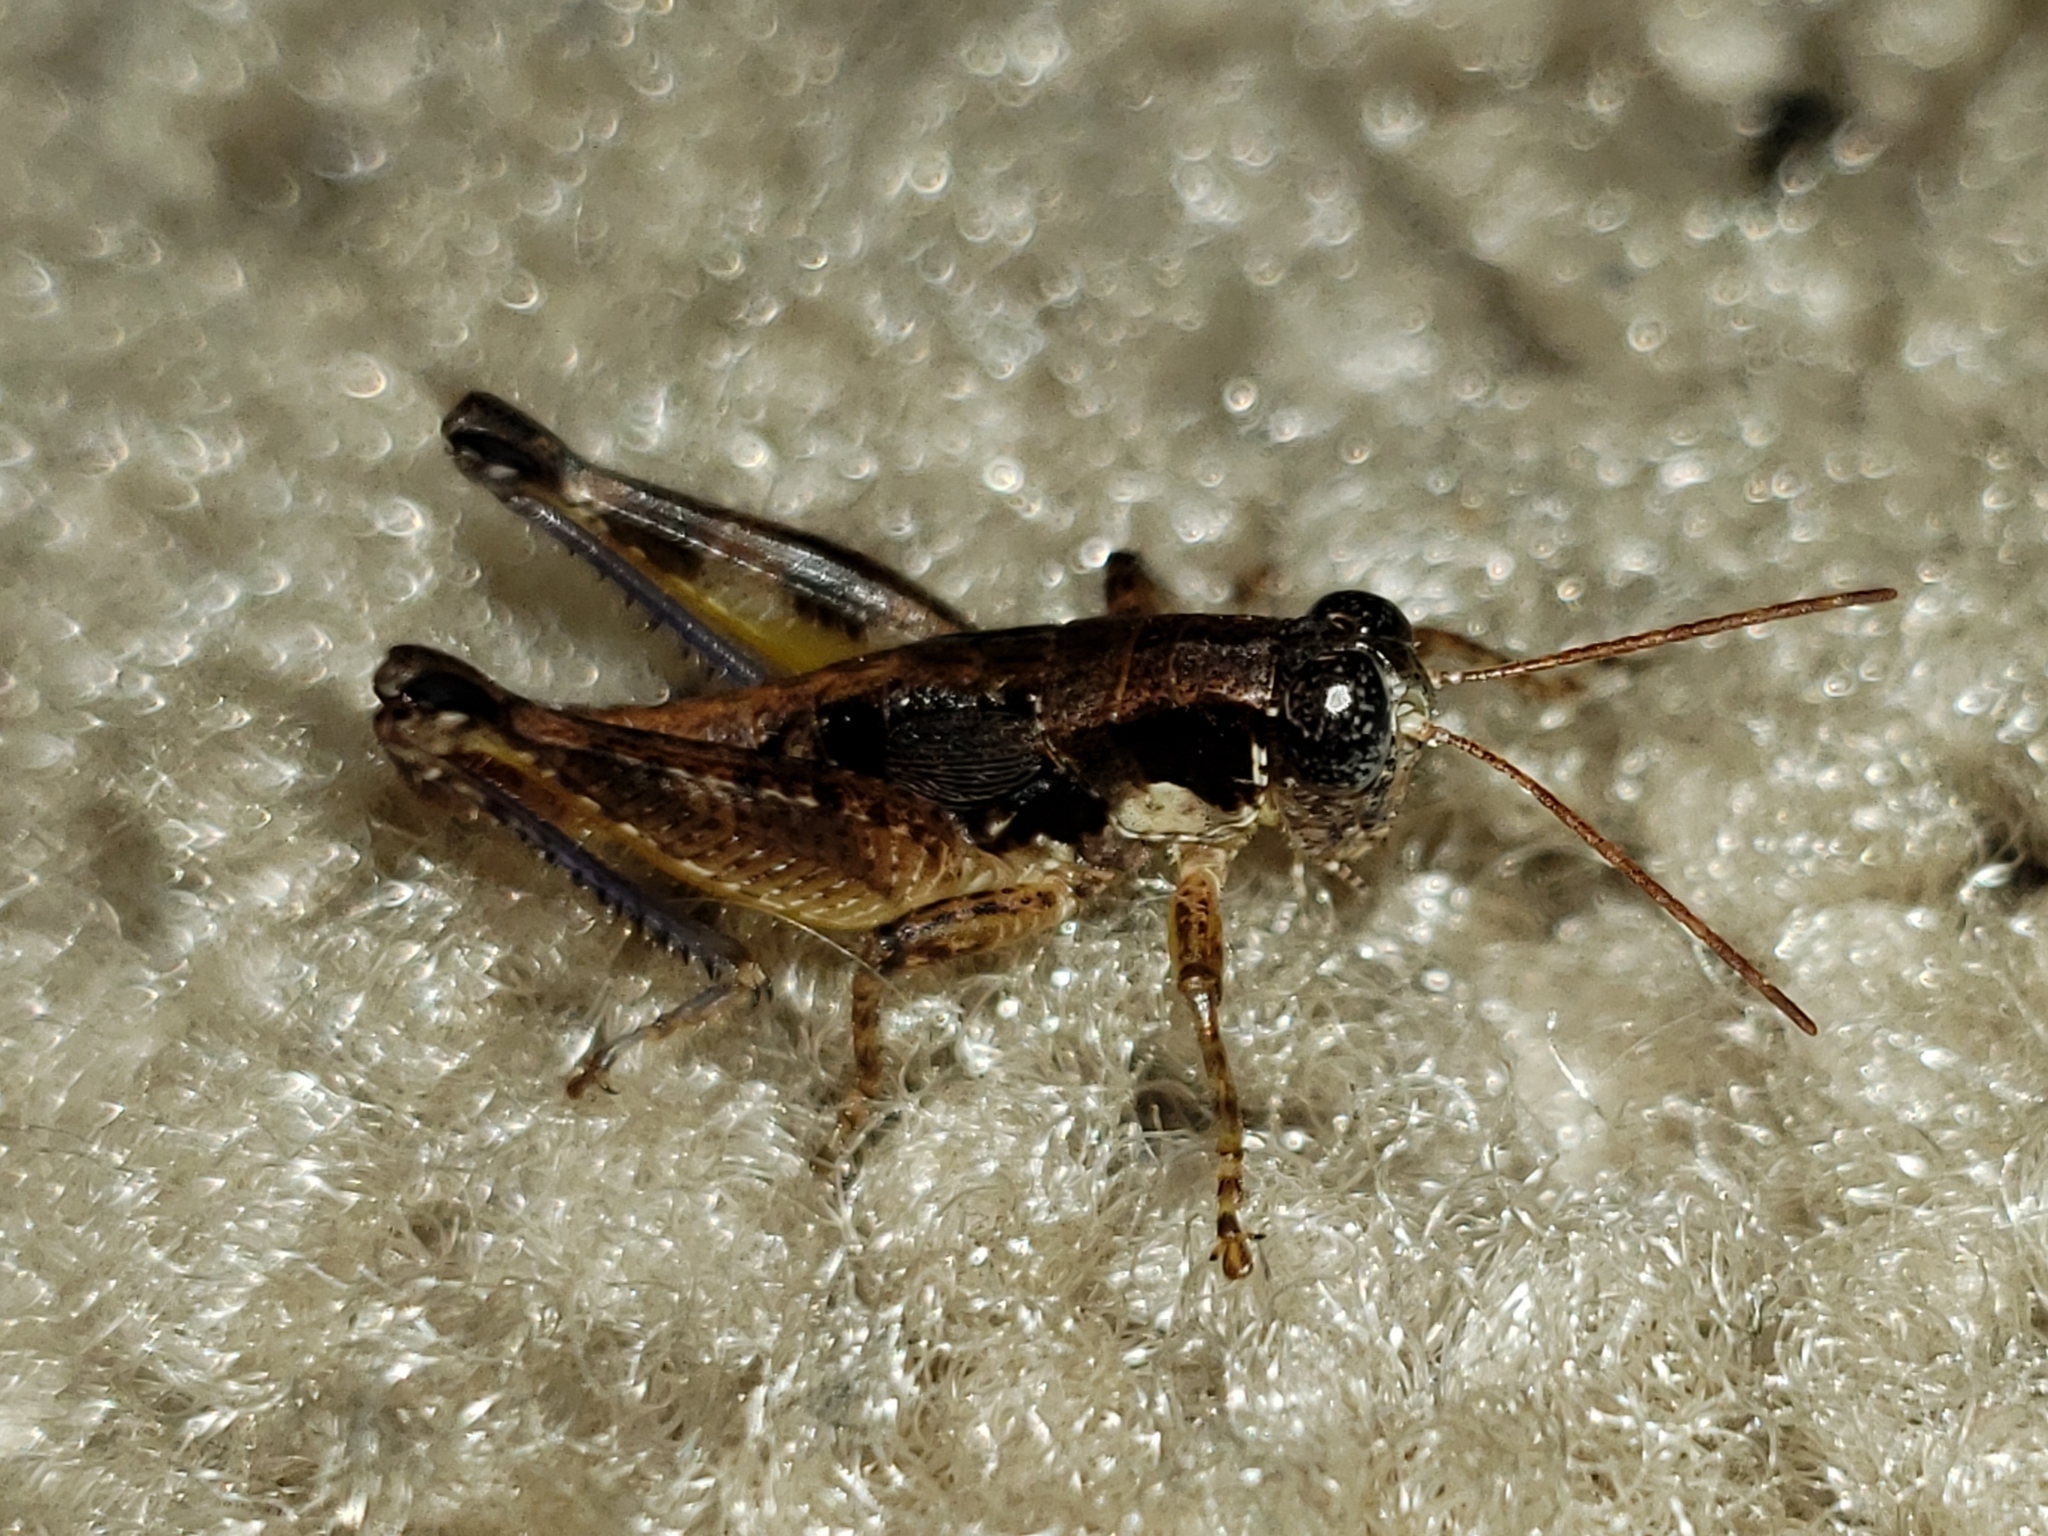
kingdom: Animalia
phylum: Arthropoda
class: Insecta
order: Orthoptera
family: Acrididae
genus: Melanoplus
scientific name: Melanoplus puer
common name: Least short-winged locust
